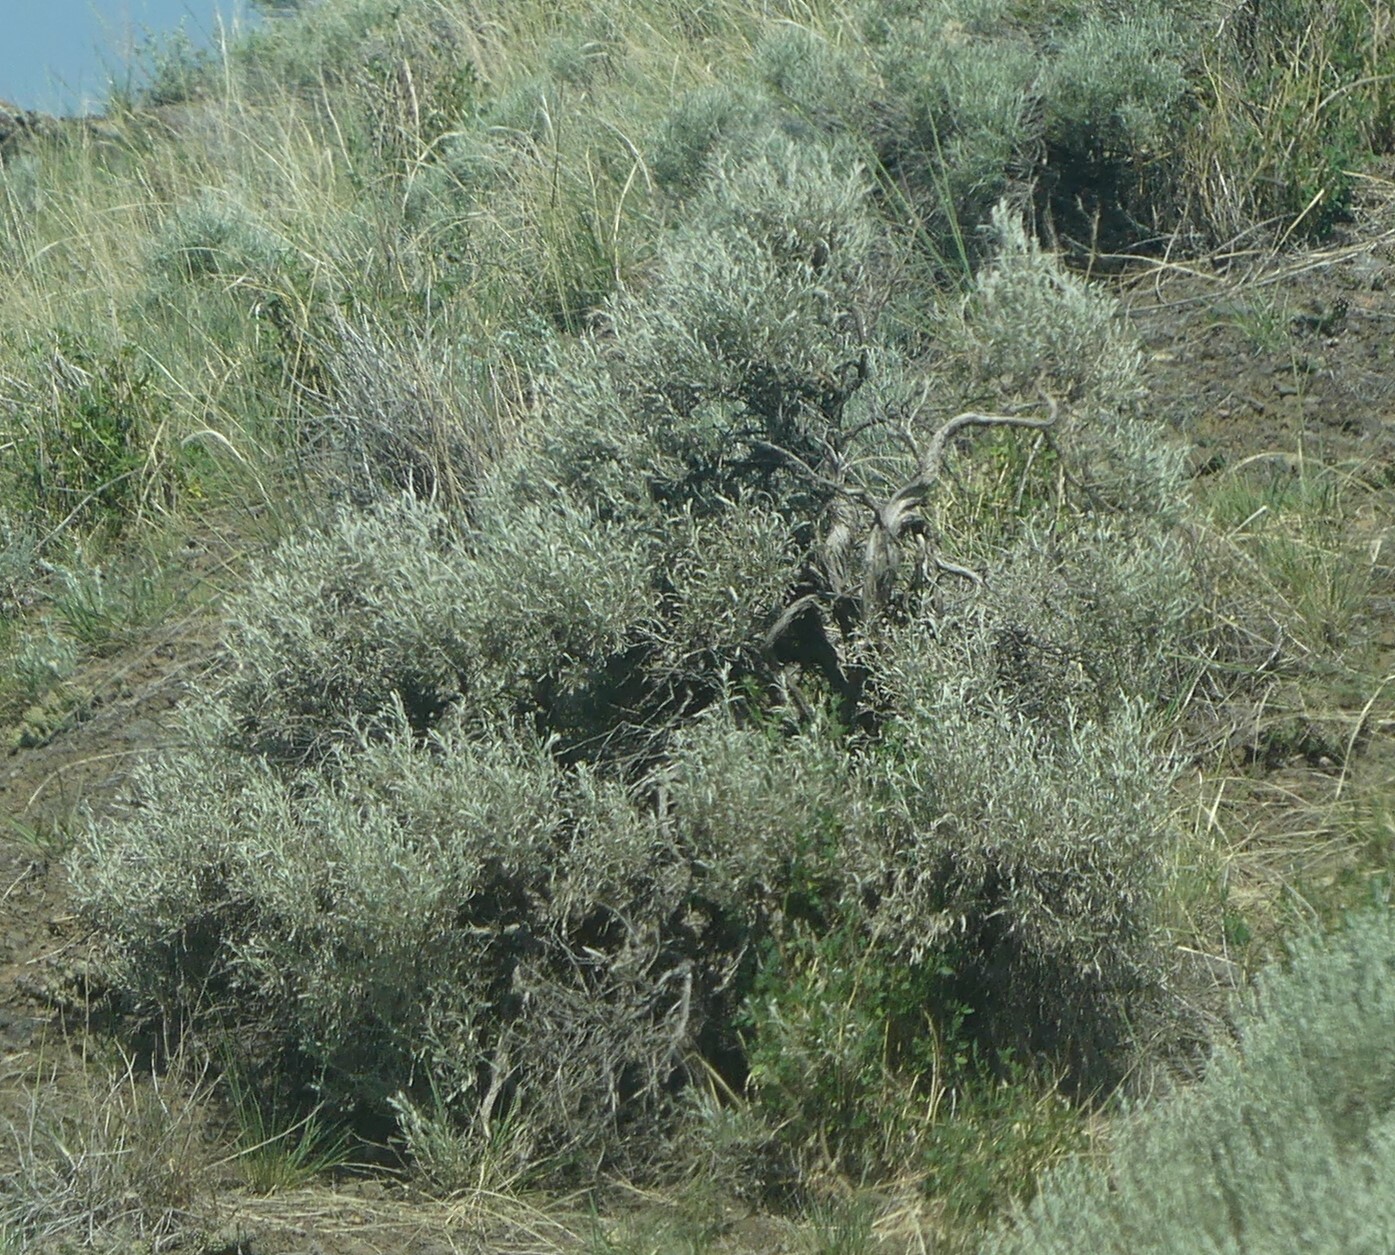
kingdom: Plantae
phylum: Tracheophyta
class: Magnoliopsida
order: Asterales
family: Asteraceae
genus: Artemisia
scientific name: Artemisia tridentata
